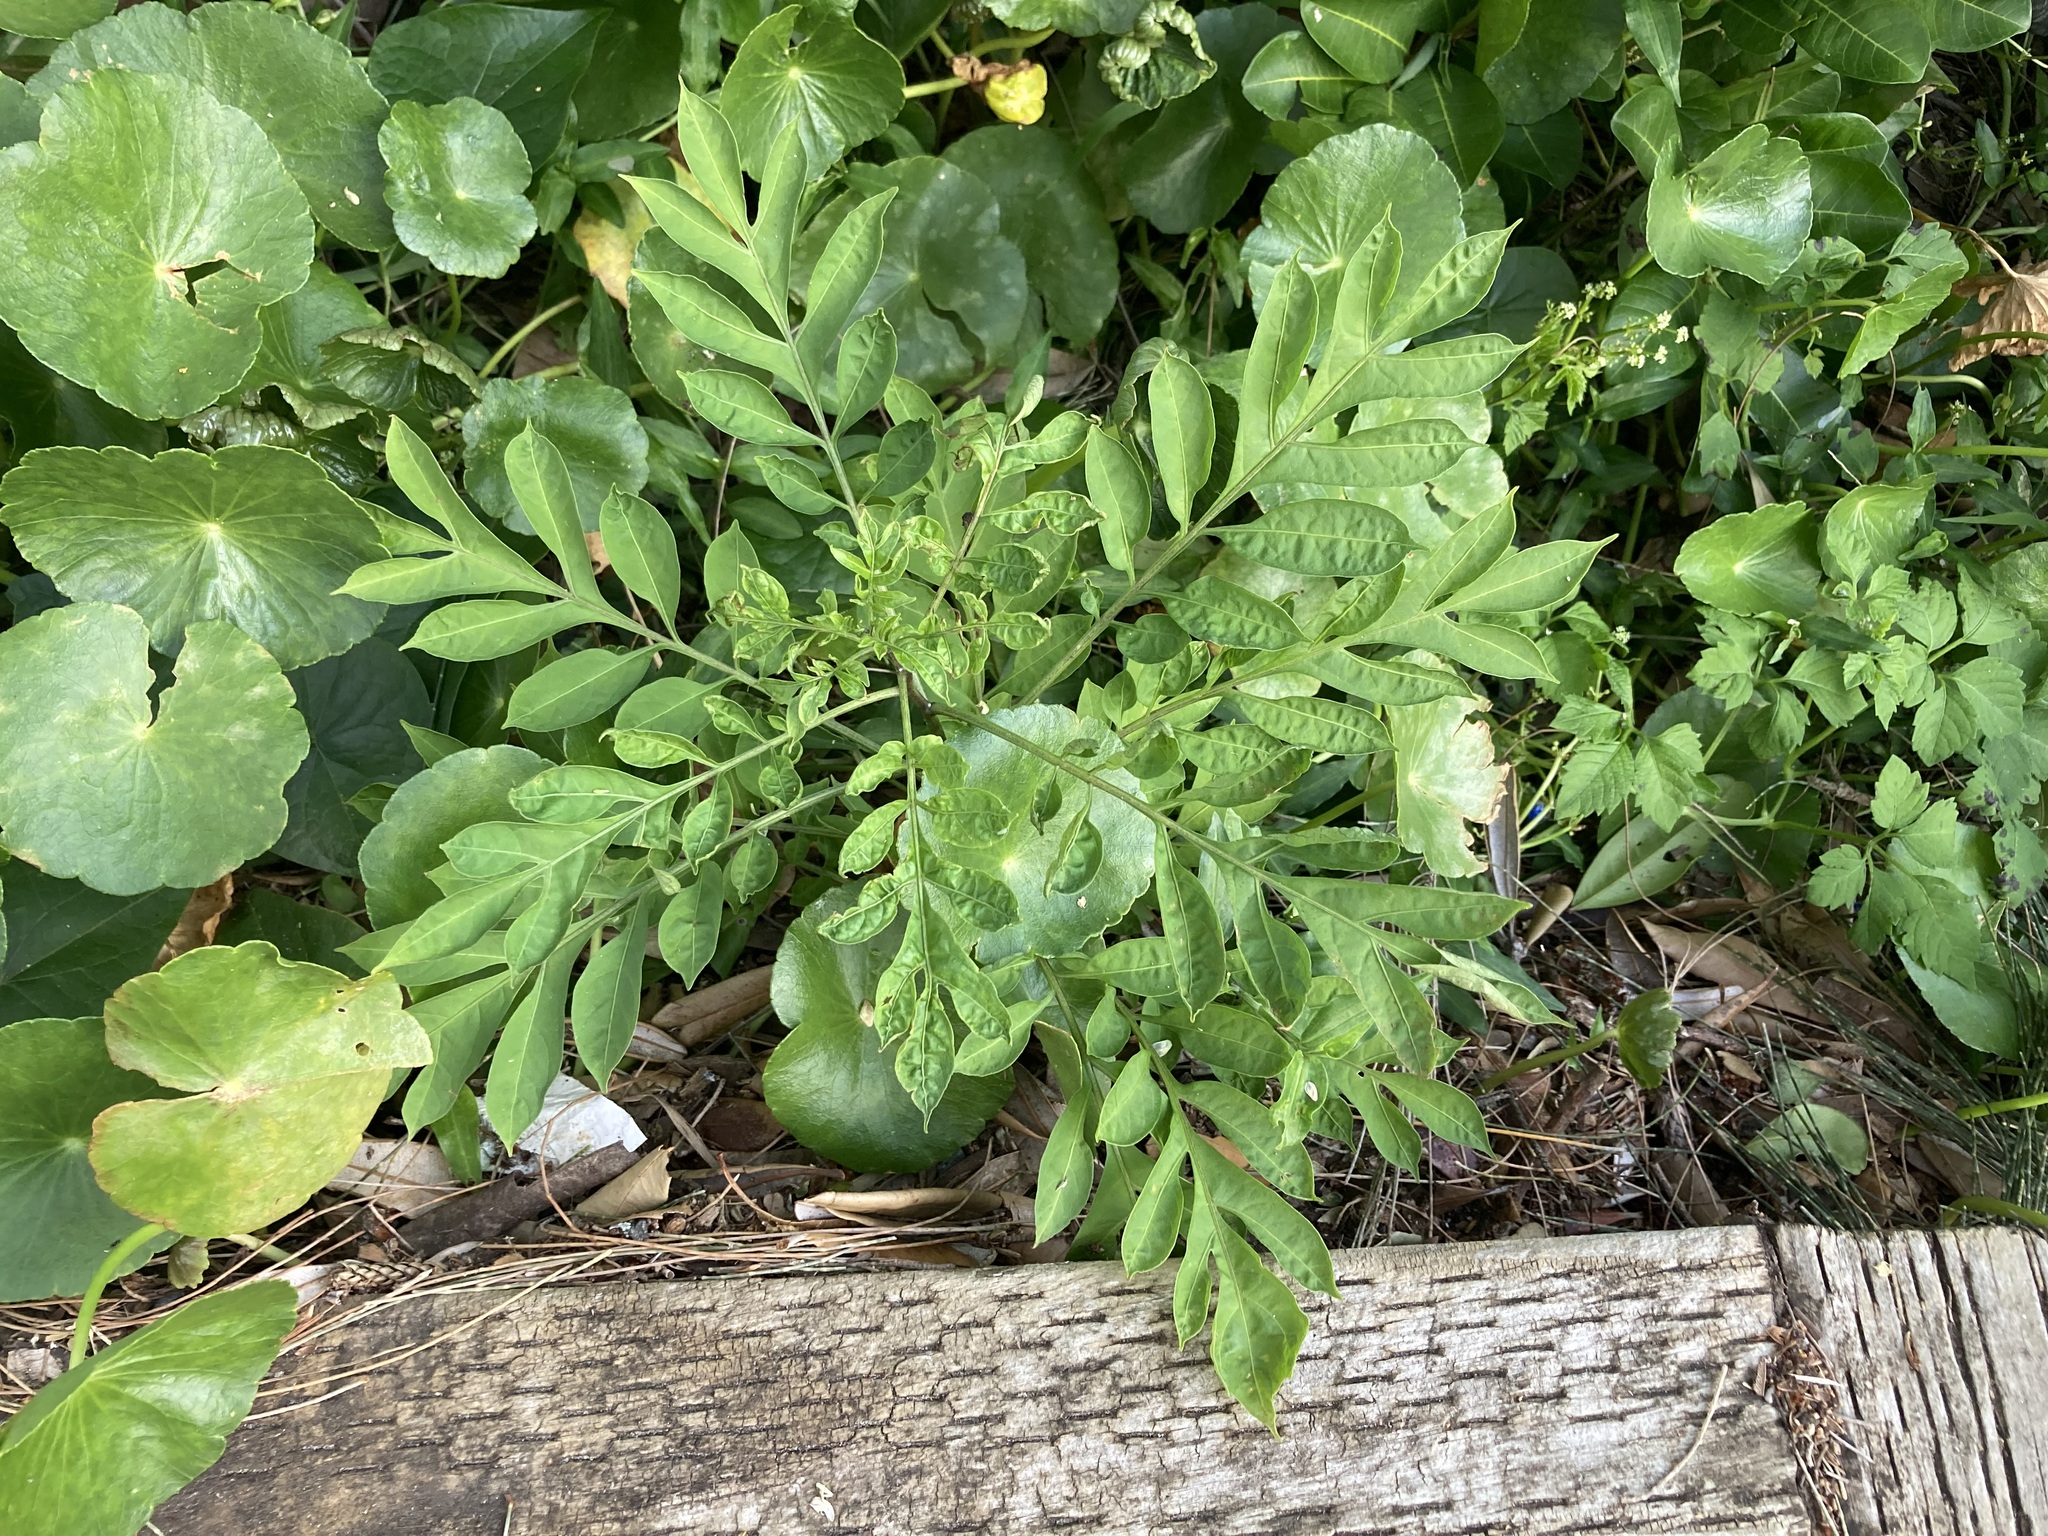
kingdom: Plantae
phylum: Tracheophyta
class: Magnoliopsida
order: Solanales
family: Solanaceae
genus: Solanum
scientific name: Solanum seaforthianum
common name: Brazilian nightshade
